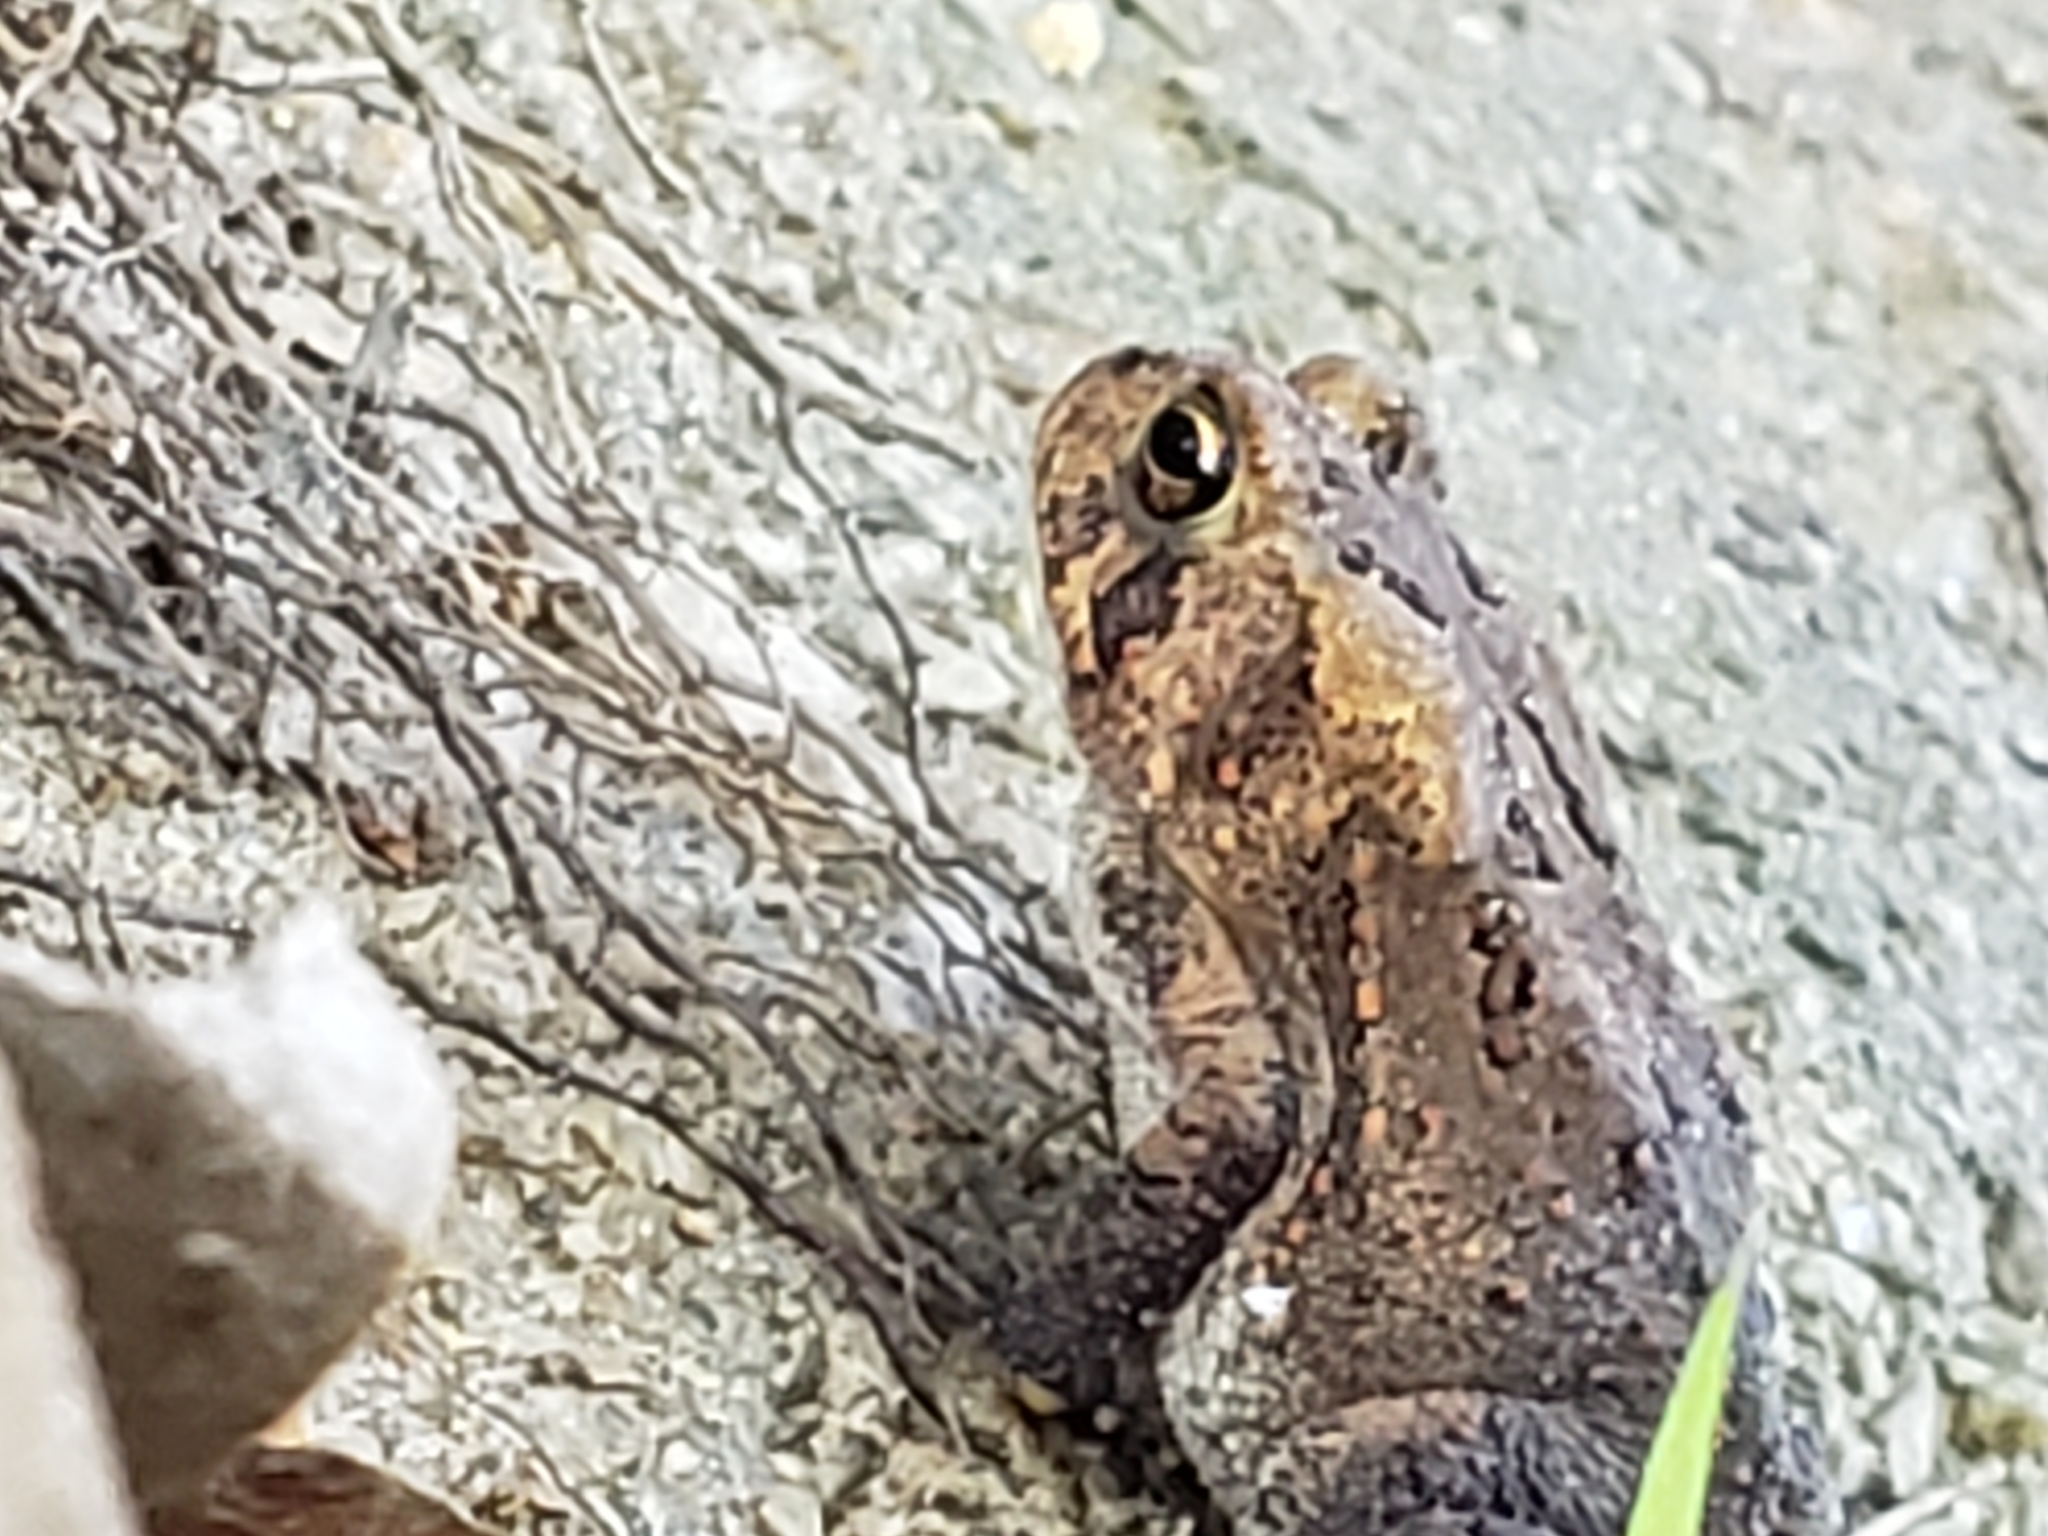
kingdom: Animalia
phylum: Chordata
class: Amphibia
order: Anura
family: Bufonidae
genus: Anaxyrus
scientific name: Anaxyrus americanus
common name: American toad
